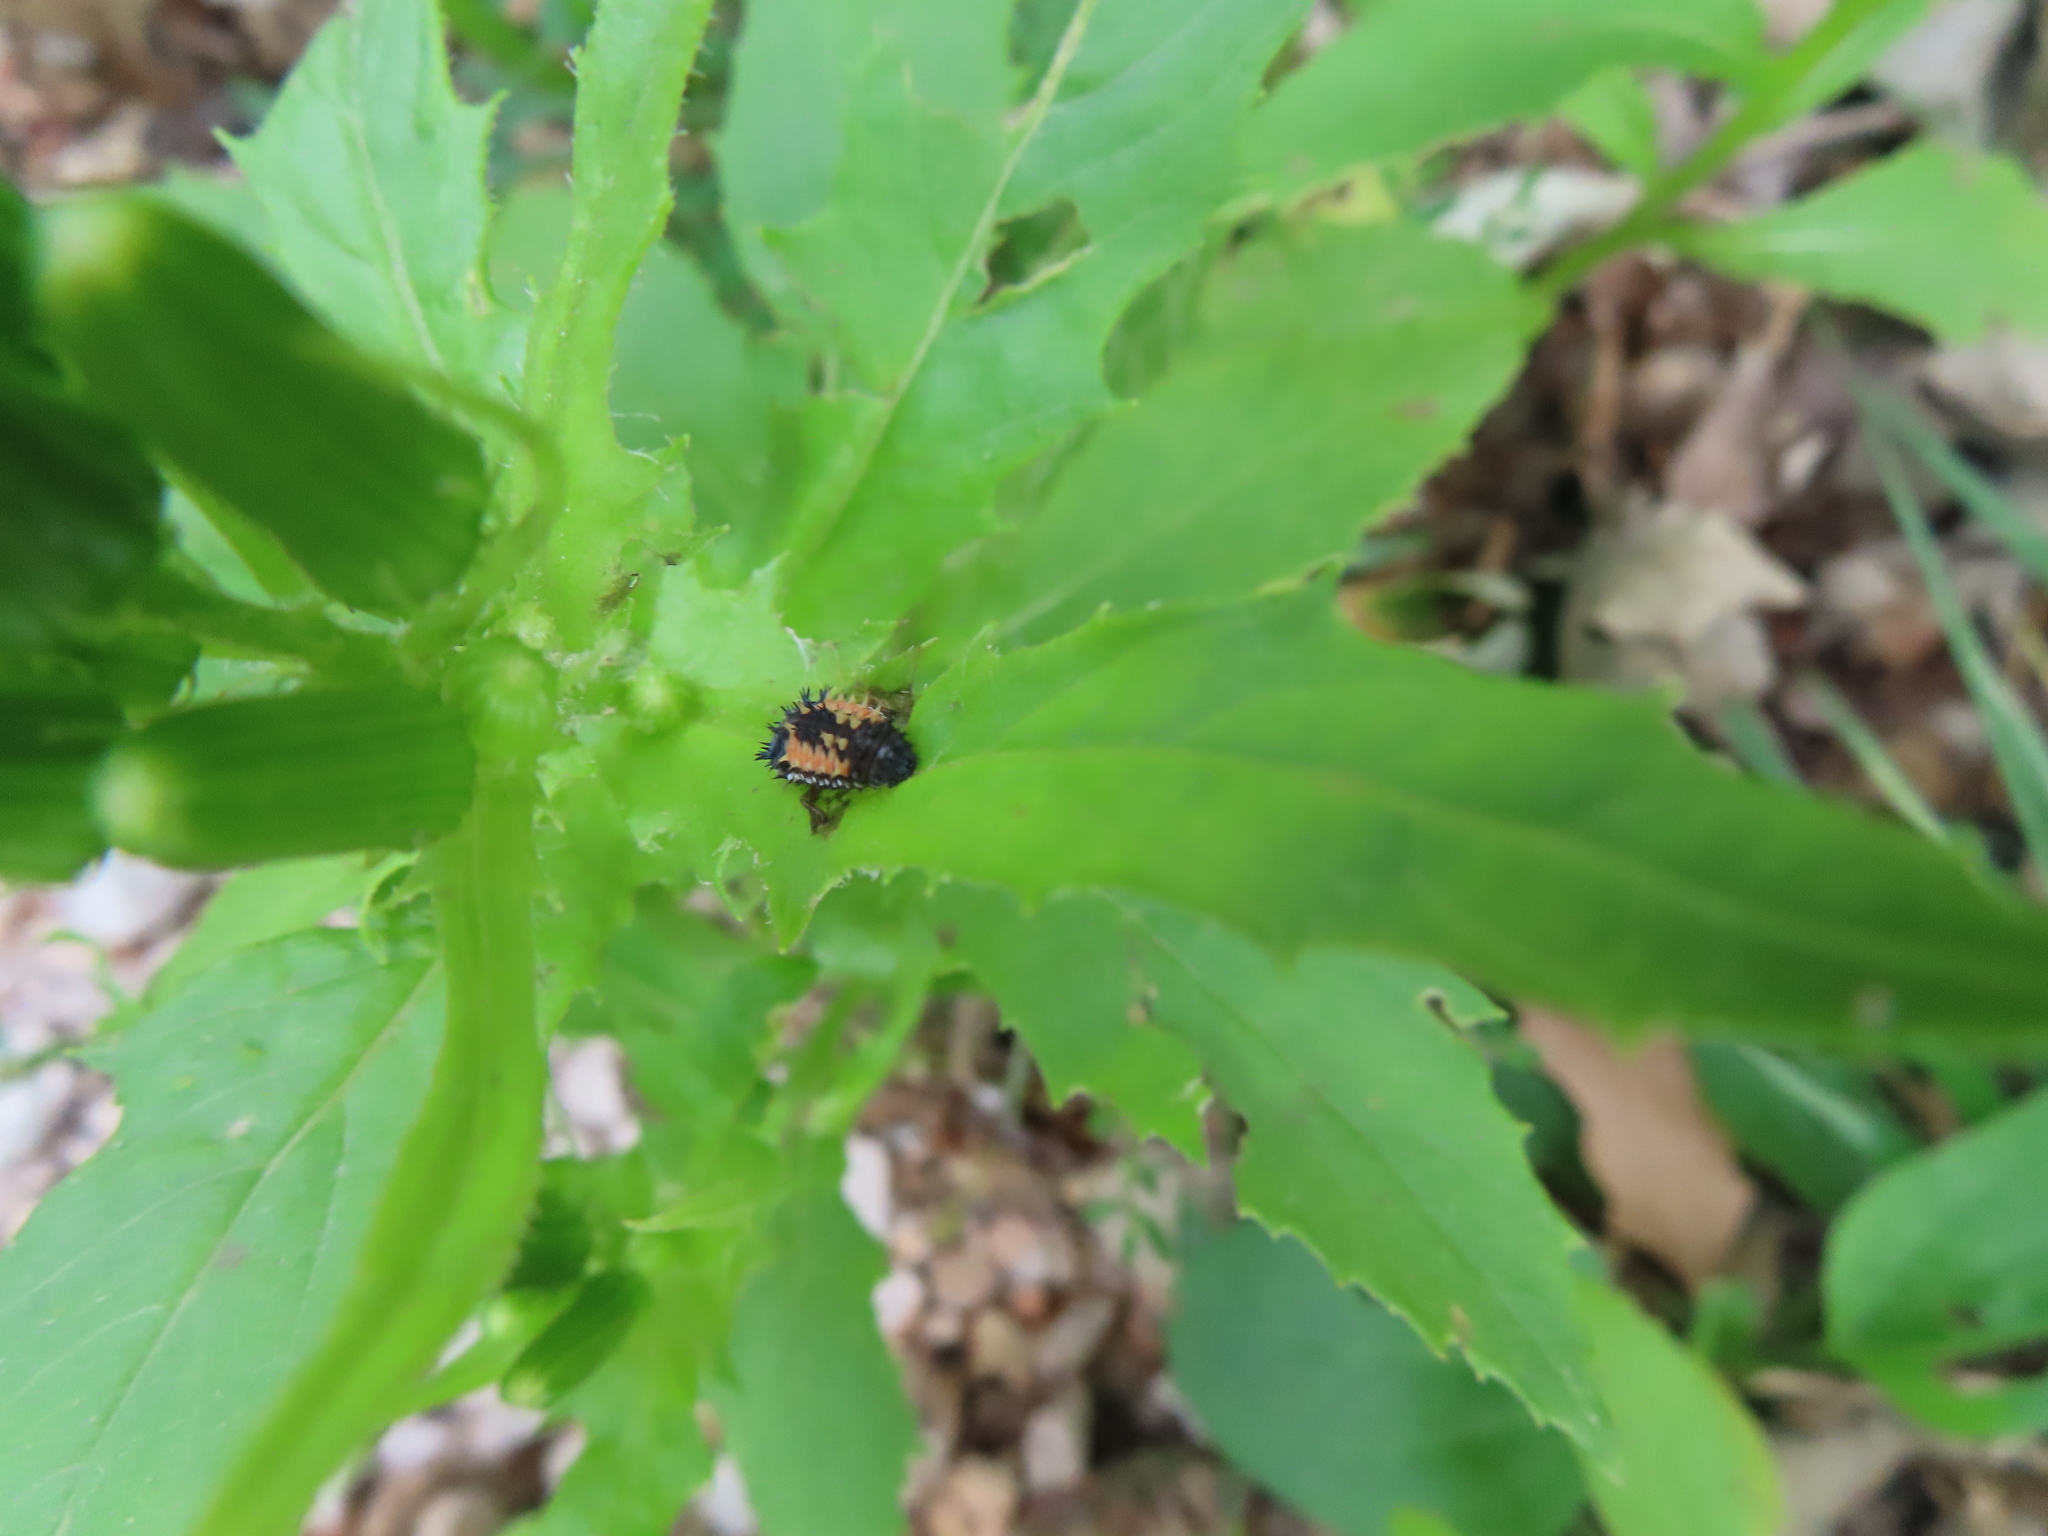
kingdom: Animalia
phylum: Arthropoda
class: Insecta
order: Coleoptera
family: Coccinellidae
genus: Harmonia
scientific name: Harmonia axyridis
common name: Harlequin ladybird
